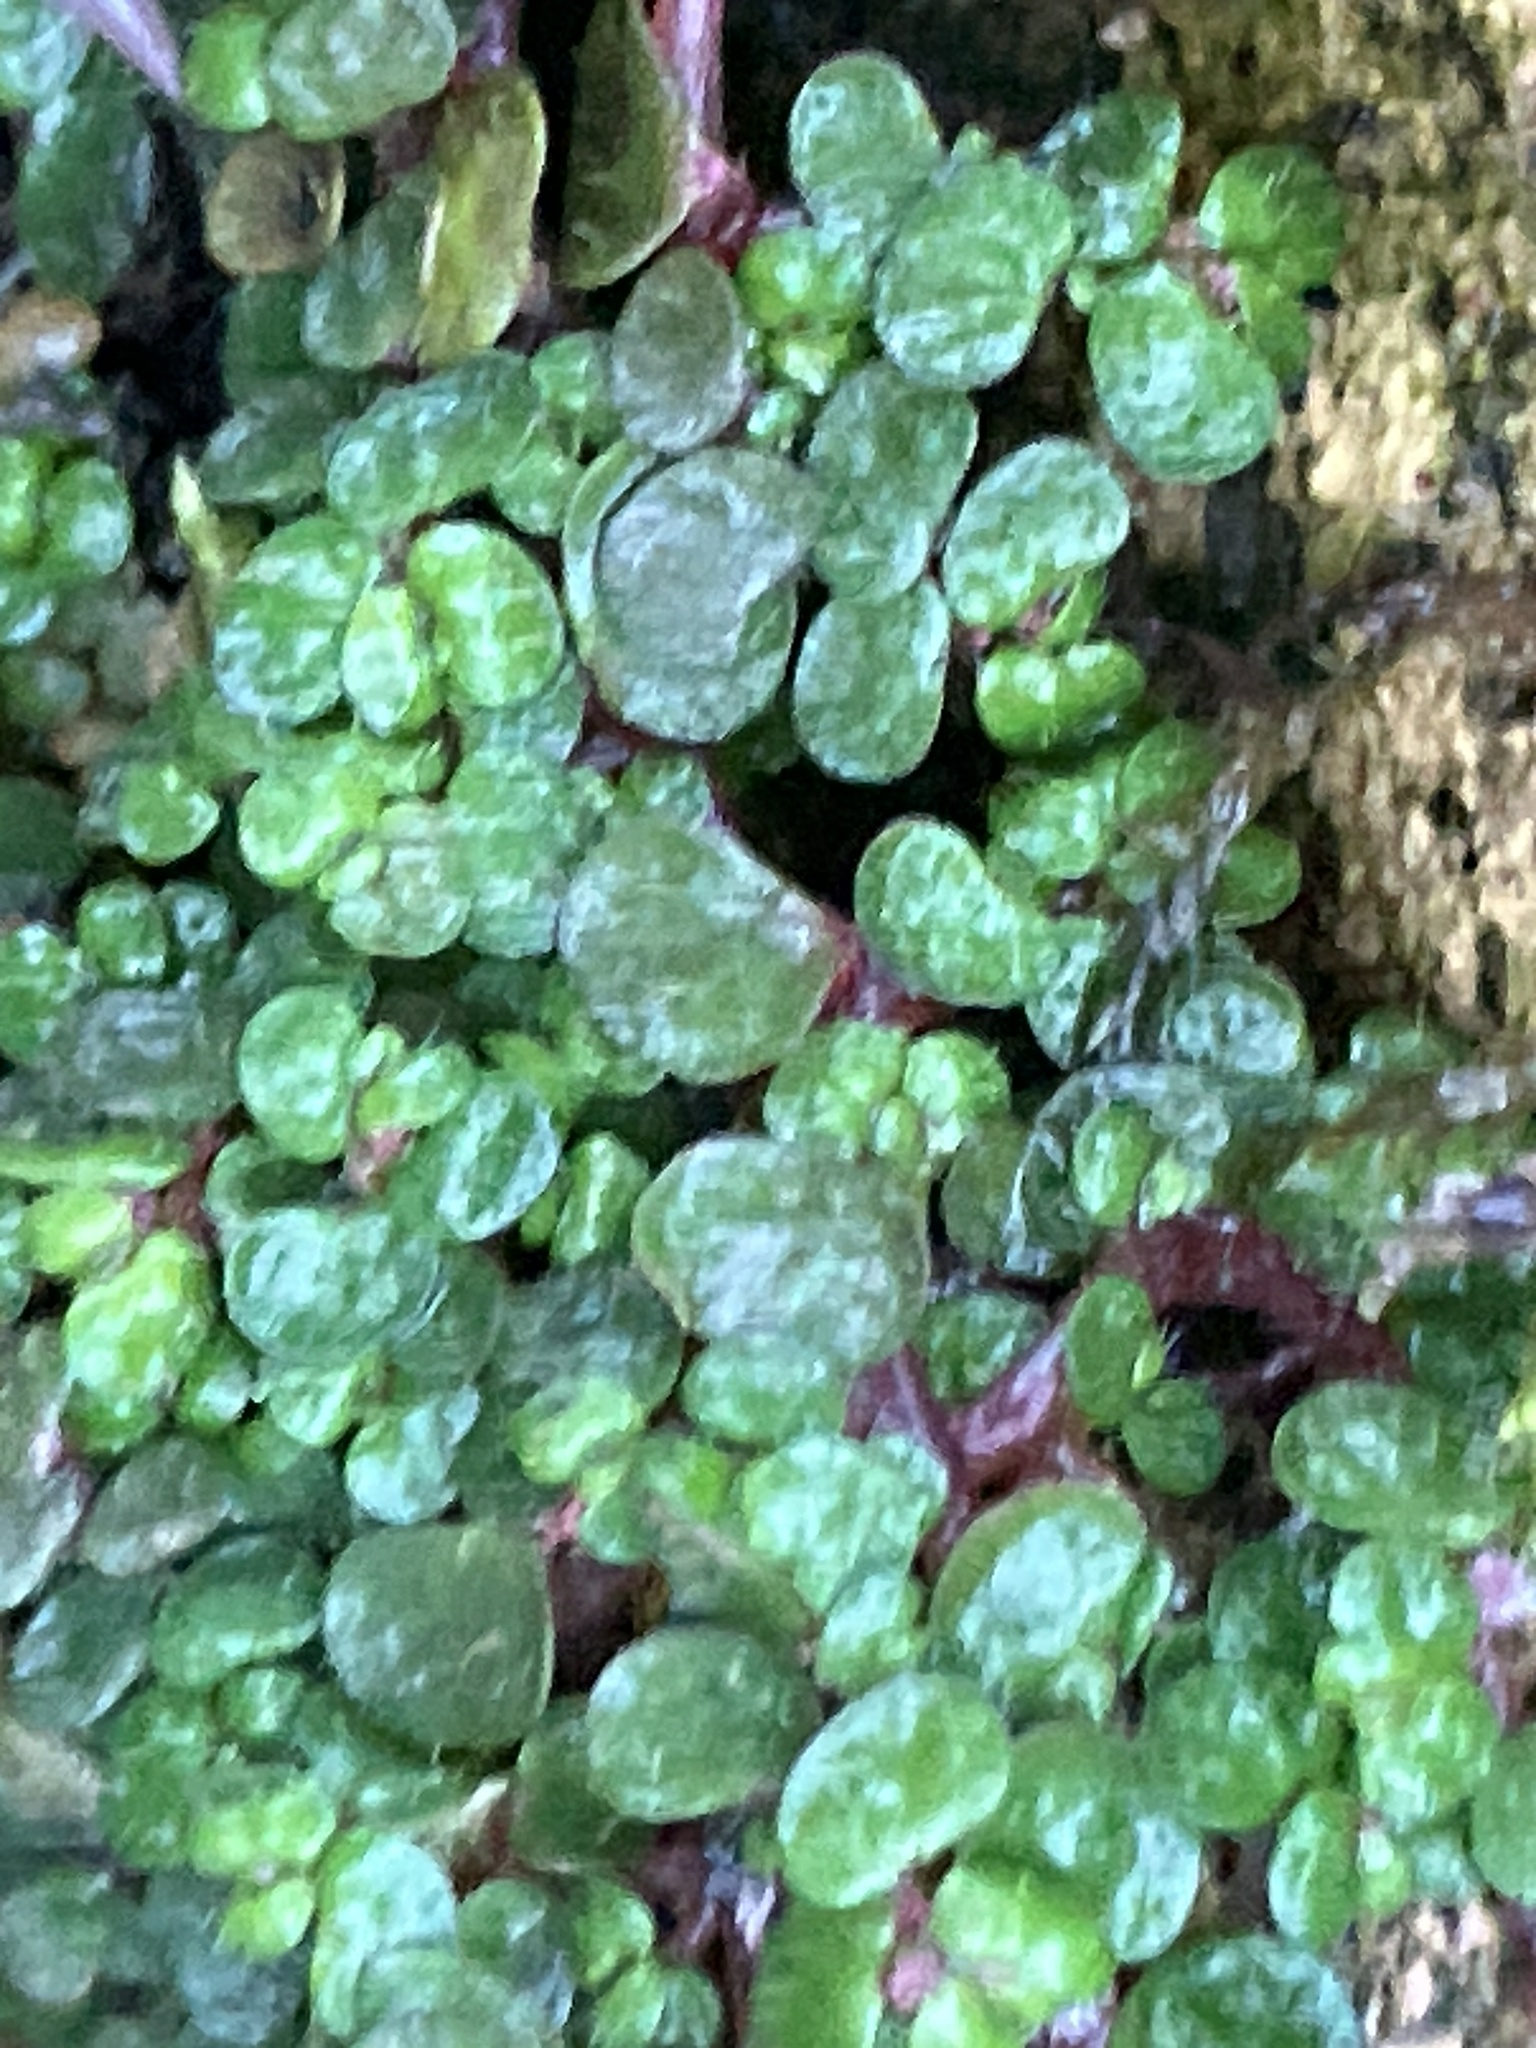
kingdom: Plantae
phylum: Tracheophyta
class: Magnoliopsida
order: Rosales
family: Urticaceae
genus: Soleirolia
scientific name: Soleirolia soleirolii
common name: Mind-your-own-business
